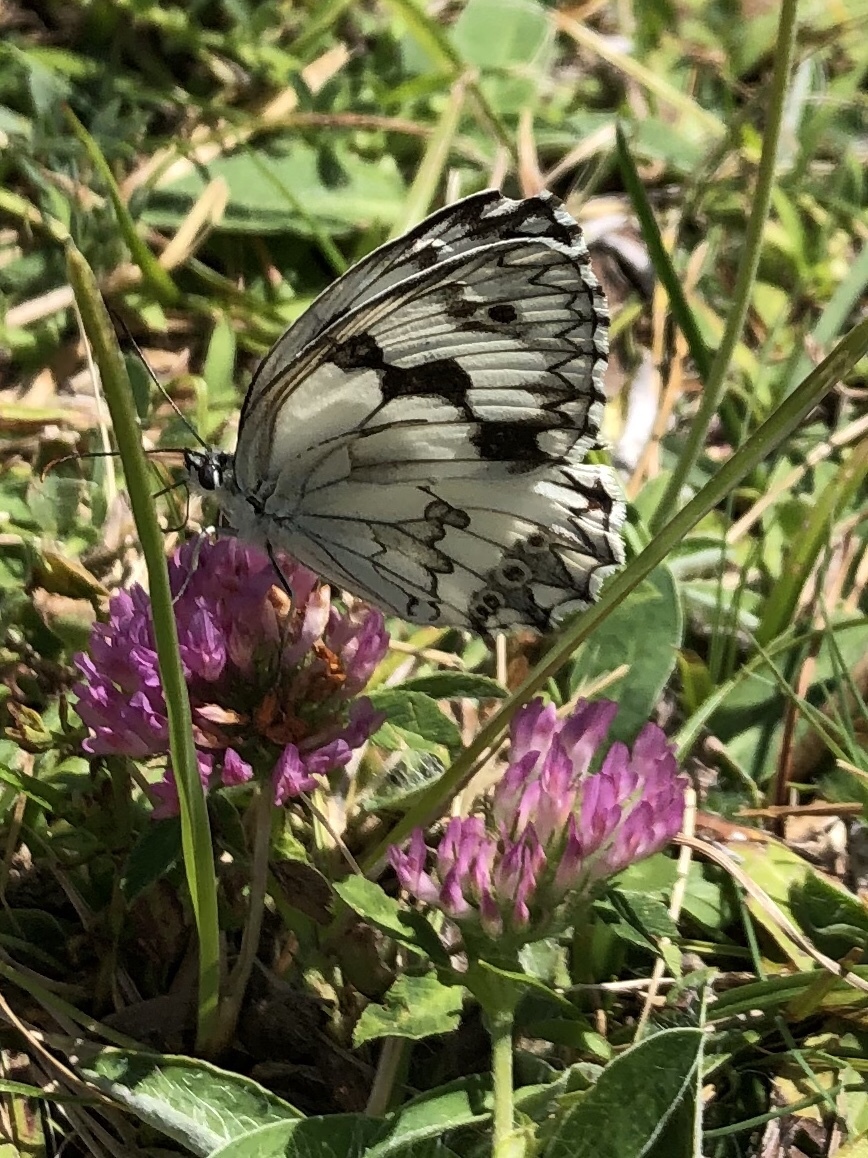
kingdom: Animalia
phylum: Arthropoda
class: Insecta
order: Lepidoptera
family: Nymphalidae
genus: Melanargia
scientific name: Melanargia lachesis
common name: Iberian marbled white
